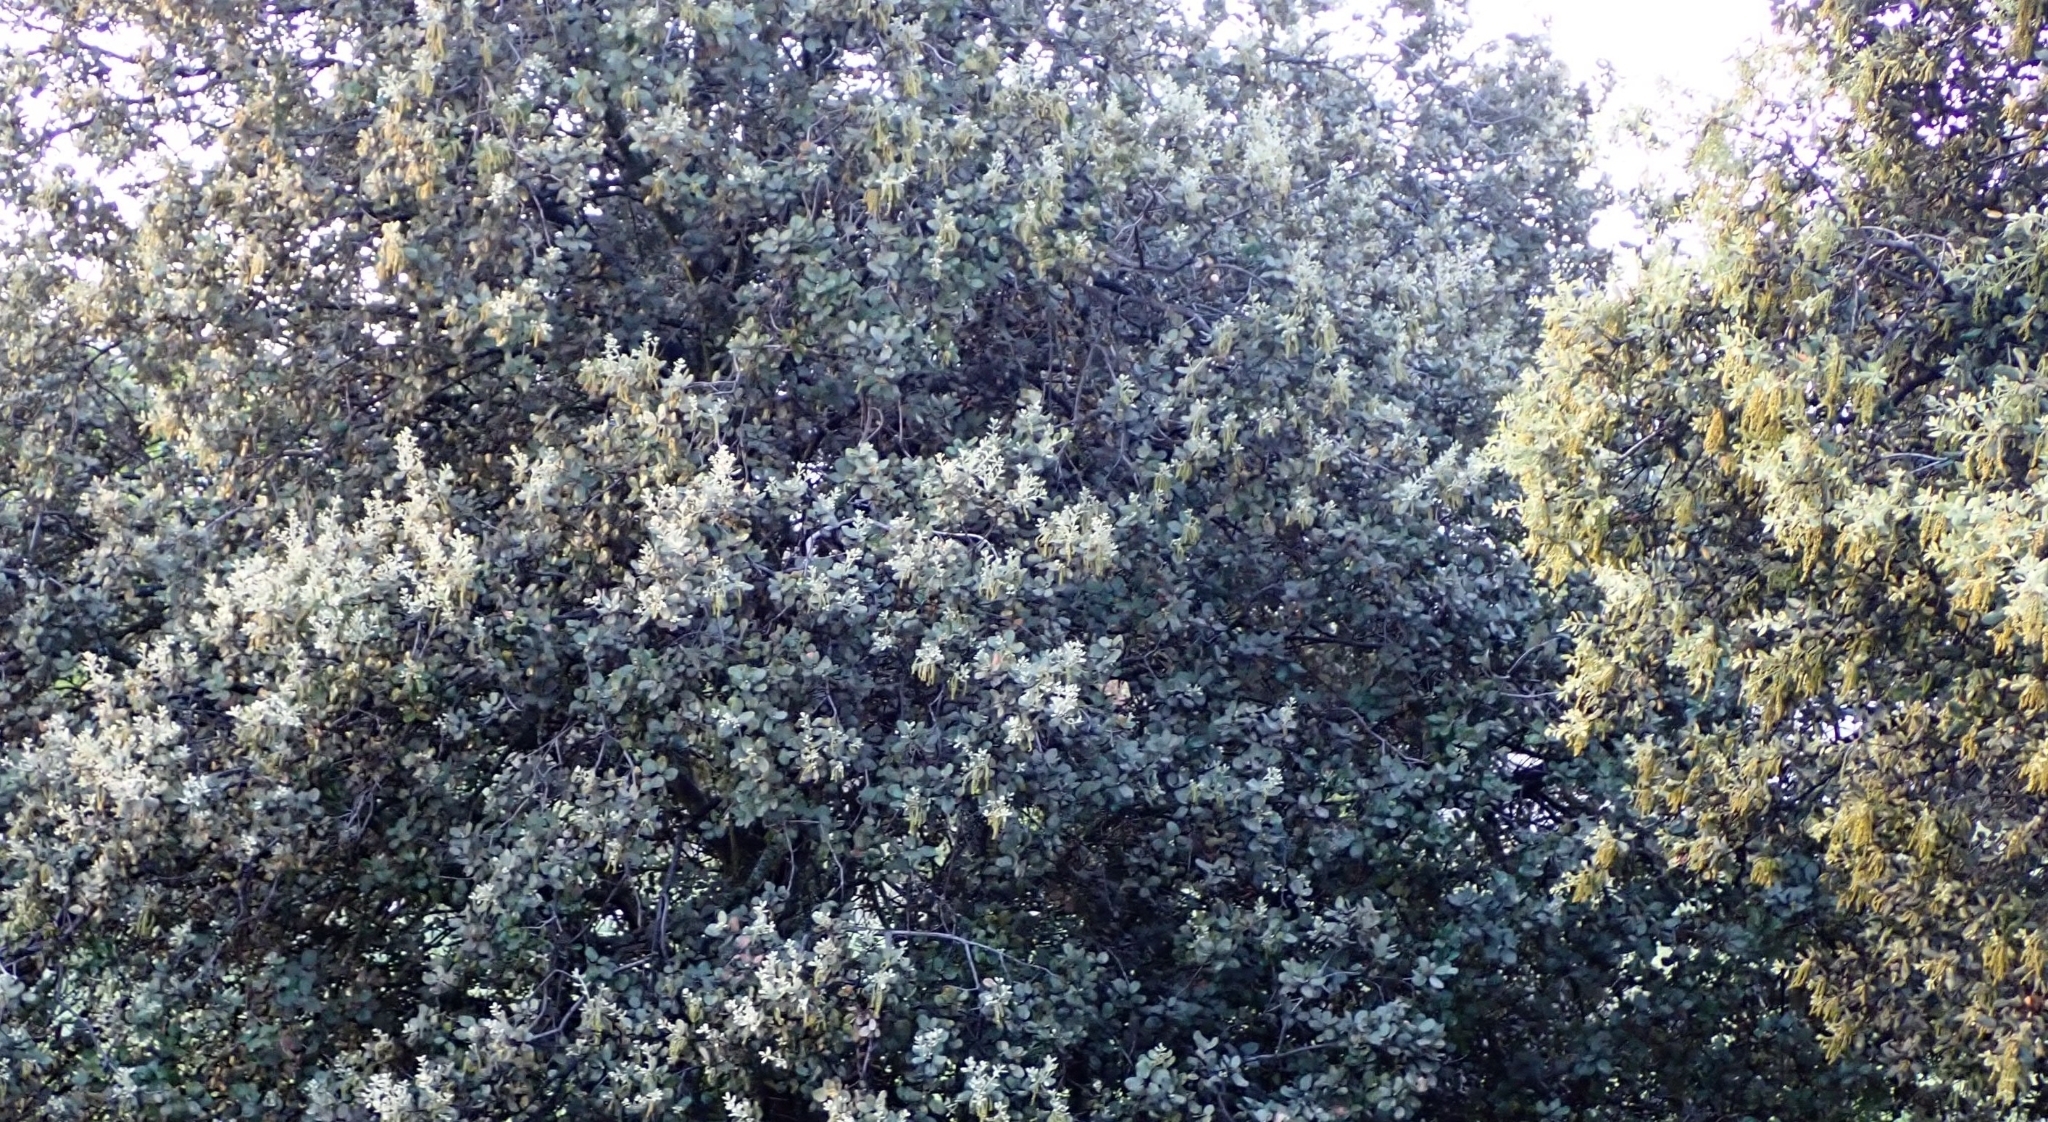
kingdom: Plantae
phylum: Tracheophyta
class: Magnoliopsida
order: Fagales
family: Fagaceae
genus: Quercus
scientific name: Quercus rotundifolia
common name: Holm oak
